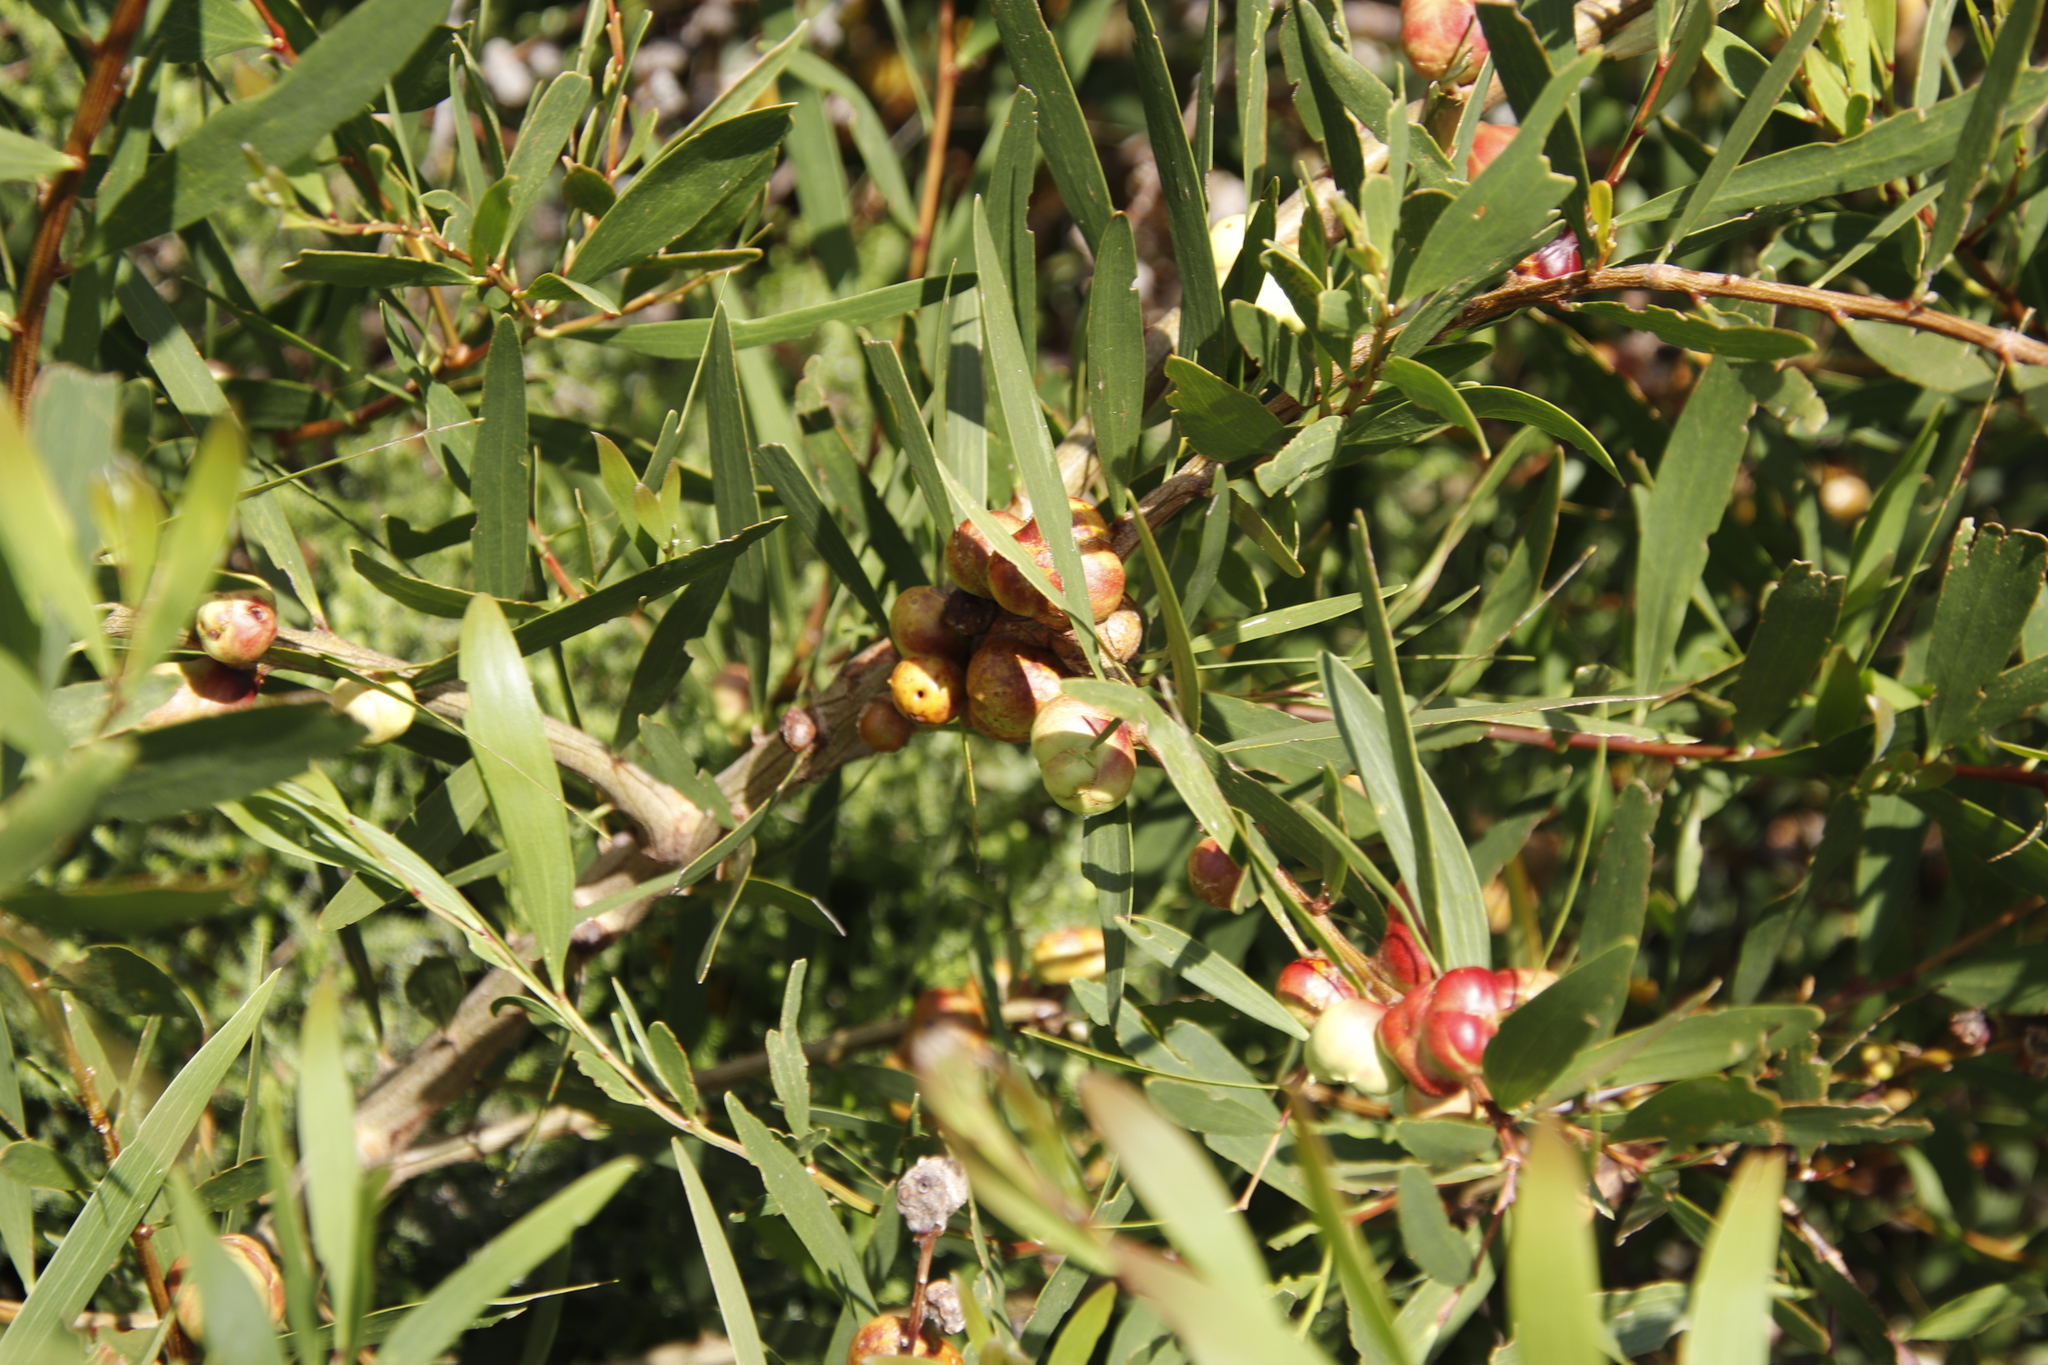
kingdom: Animalia
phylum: Arthropoda
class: Insecta
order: Hymenoptera
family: Pteromalidae
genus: Trichilogaster
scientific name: Trichilogaster acaciaelongifoliae
